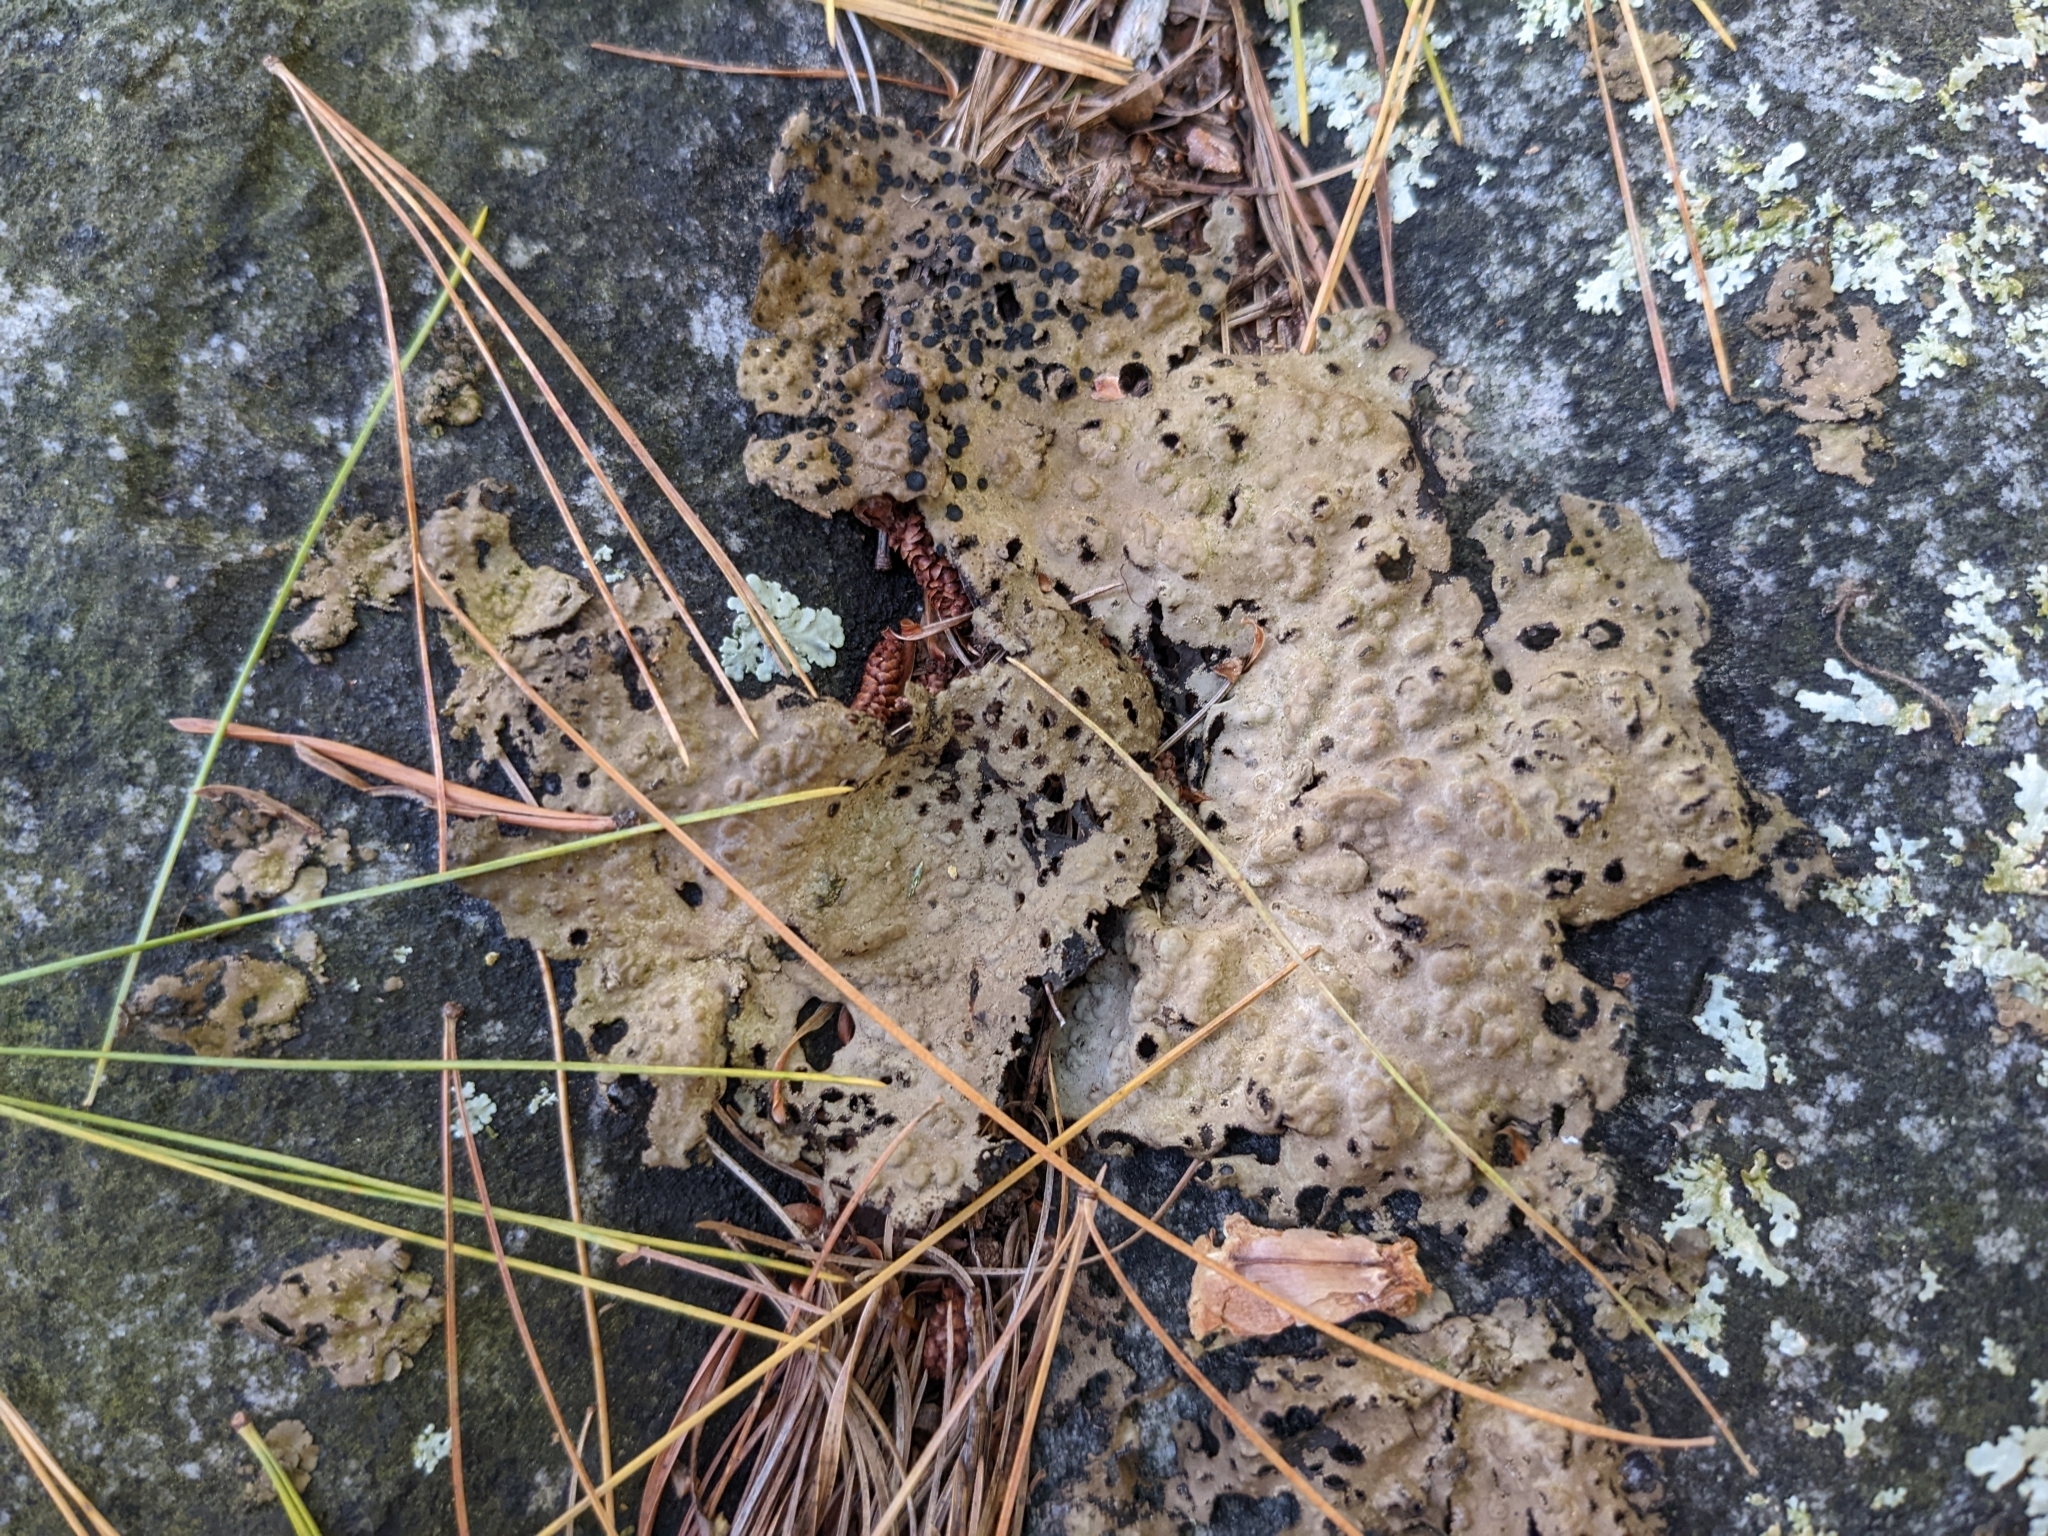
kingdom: Fungi
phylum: Ascomycota
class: Lecanoromycetes
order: Umbilicariales
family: Umbilicariaceae
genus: Lasallia
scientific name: Lasallia papulosa
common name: Common toadskin lichen
